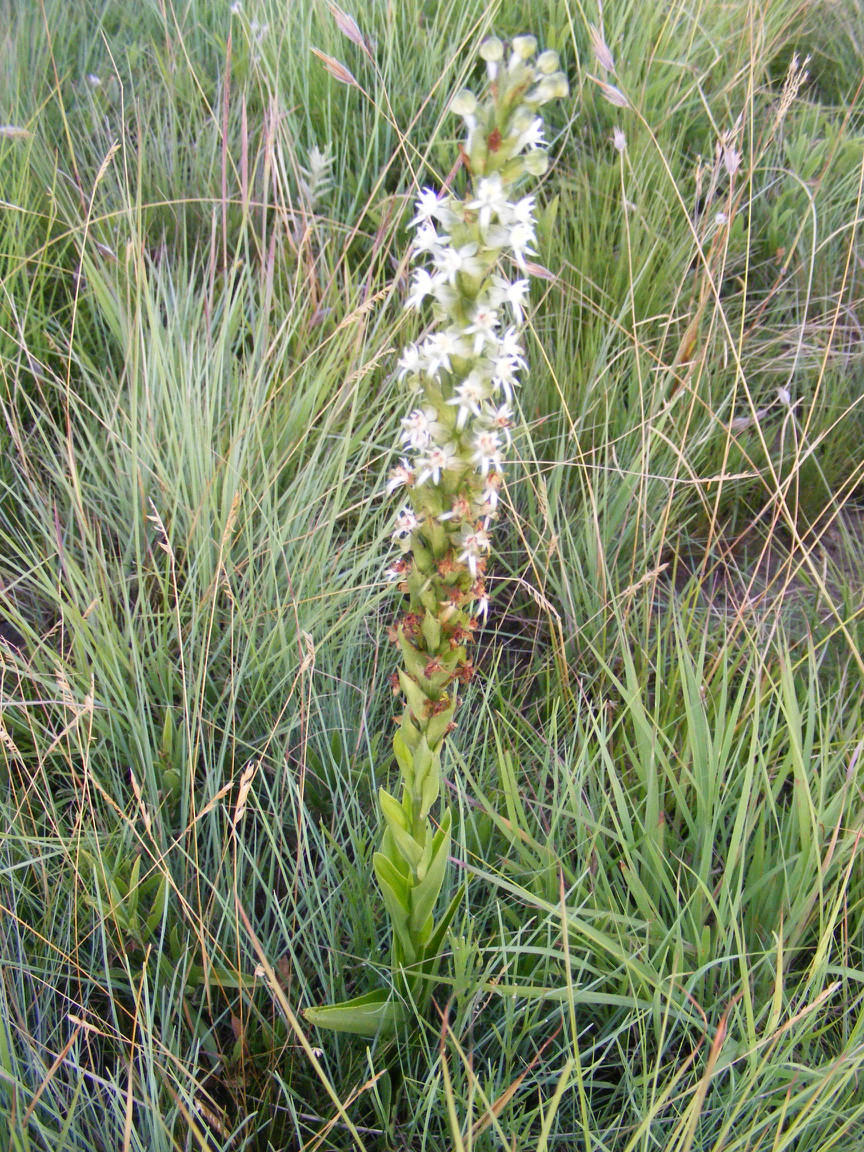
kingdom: Plantae
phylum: Tracheophyta
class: Liliopsida
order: Asparagales
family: Orchidaceae
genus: Habenaria
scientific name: Habenaria dives
